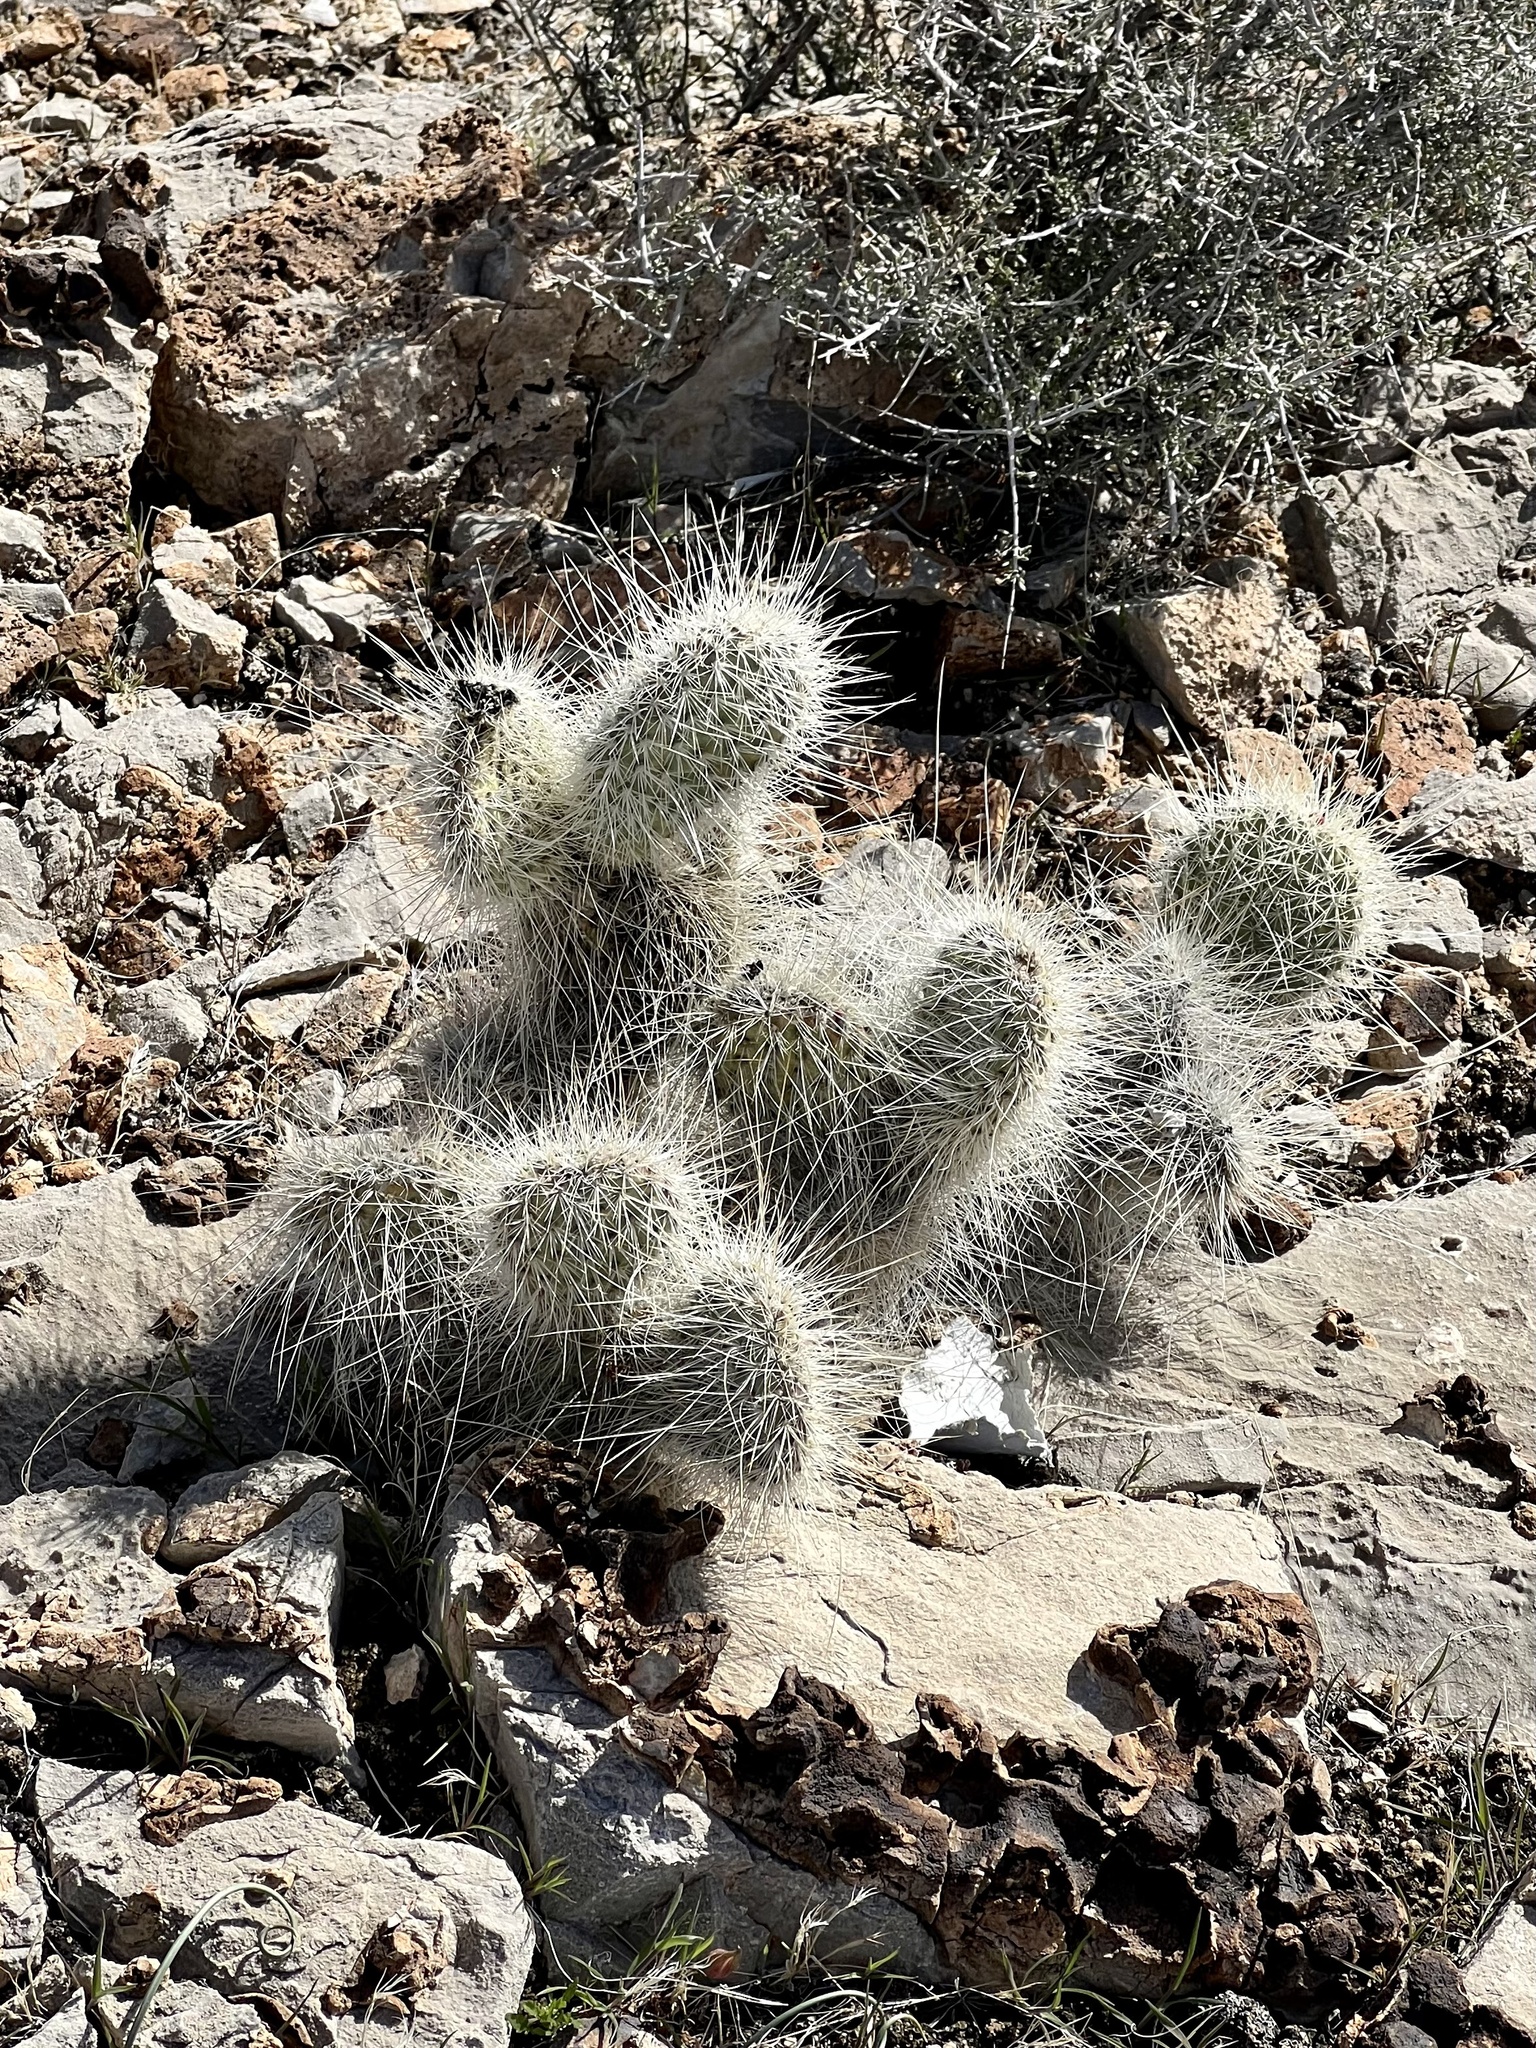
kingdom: Plantae
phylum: Tracheophyta
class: Magnoliopsida
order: Caryophyllales
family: Cactaceae
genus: Opuntia
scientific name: Opuntia polyacantha
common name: Plains prickly-pear
